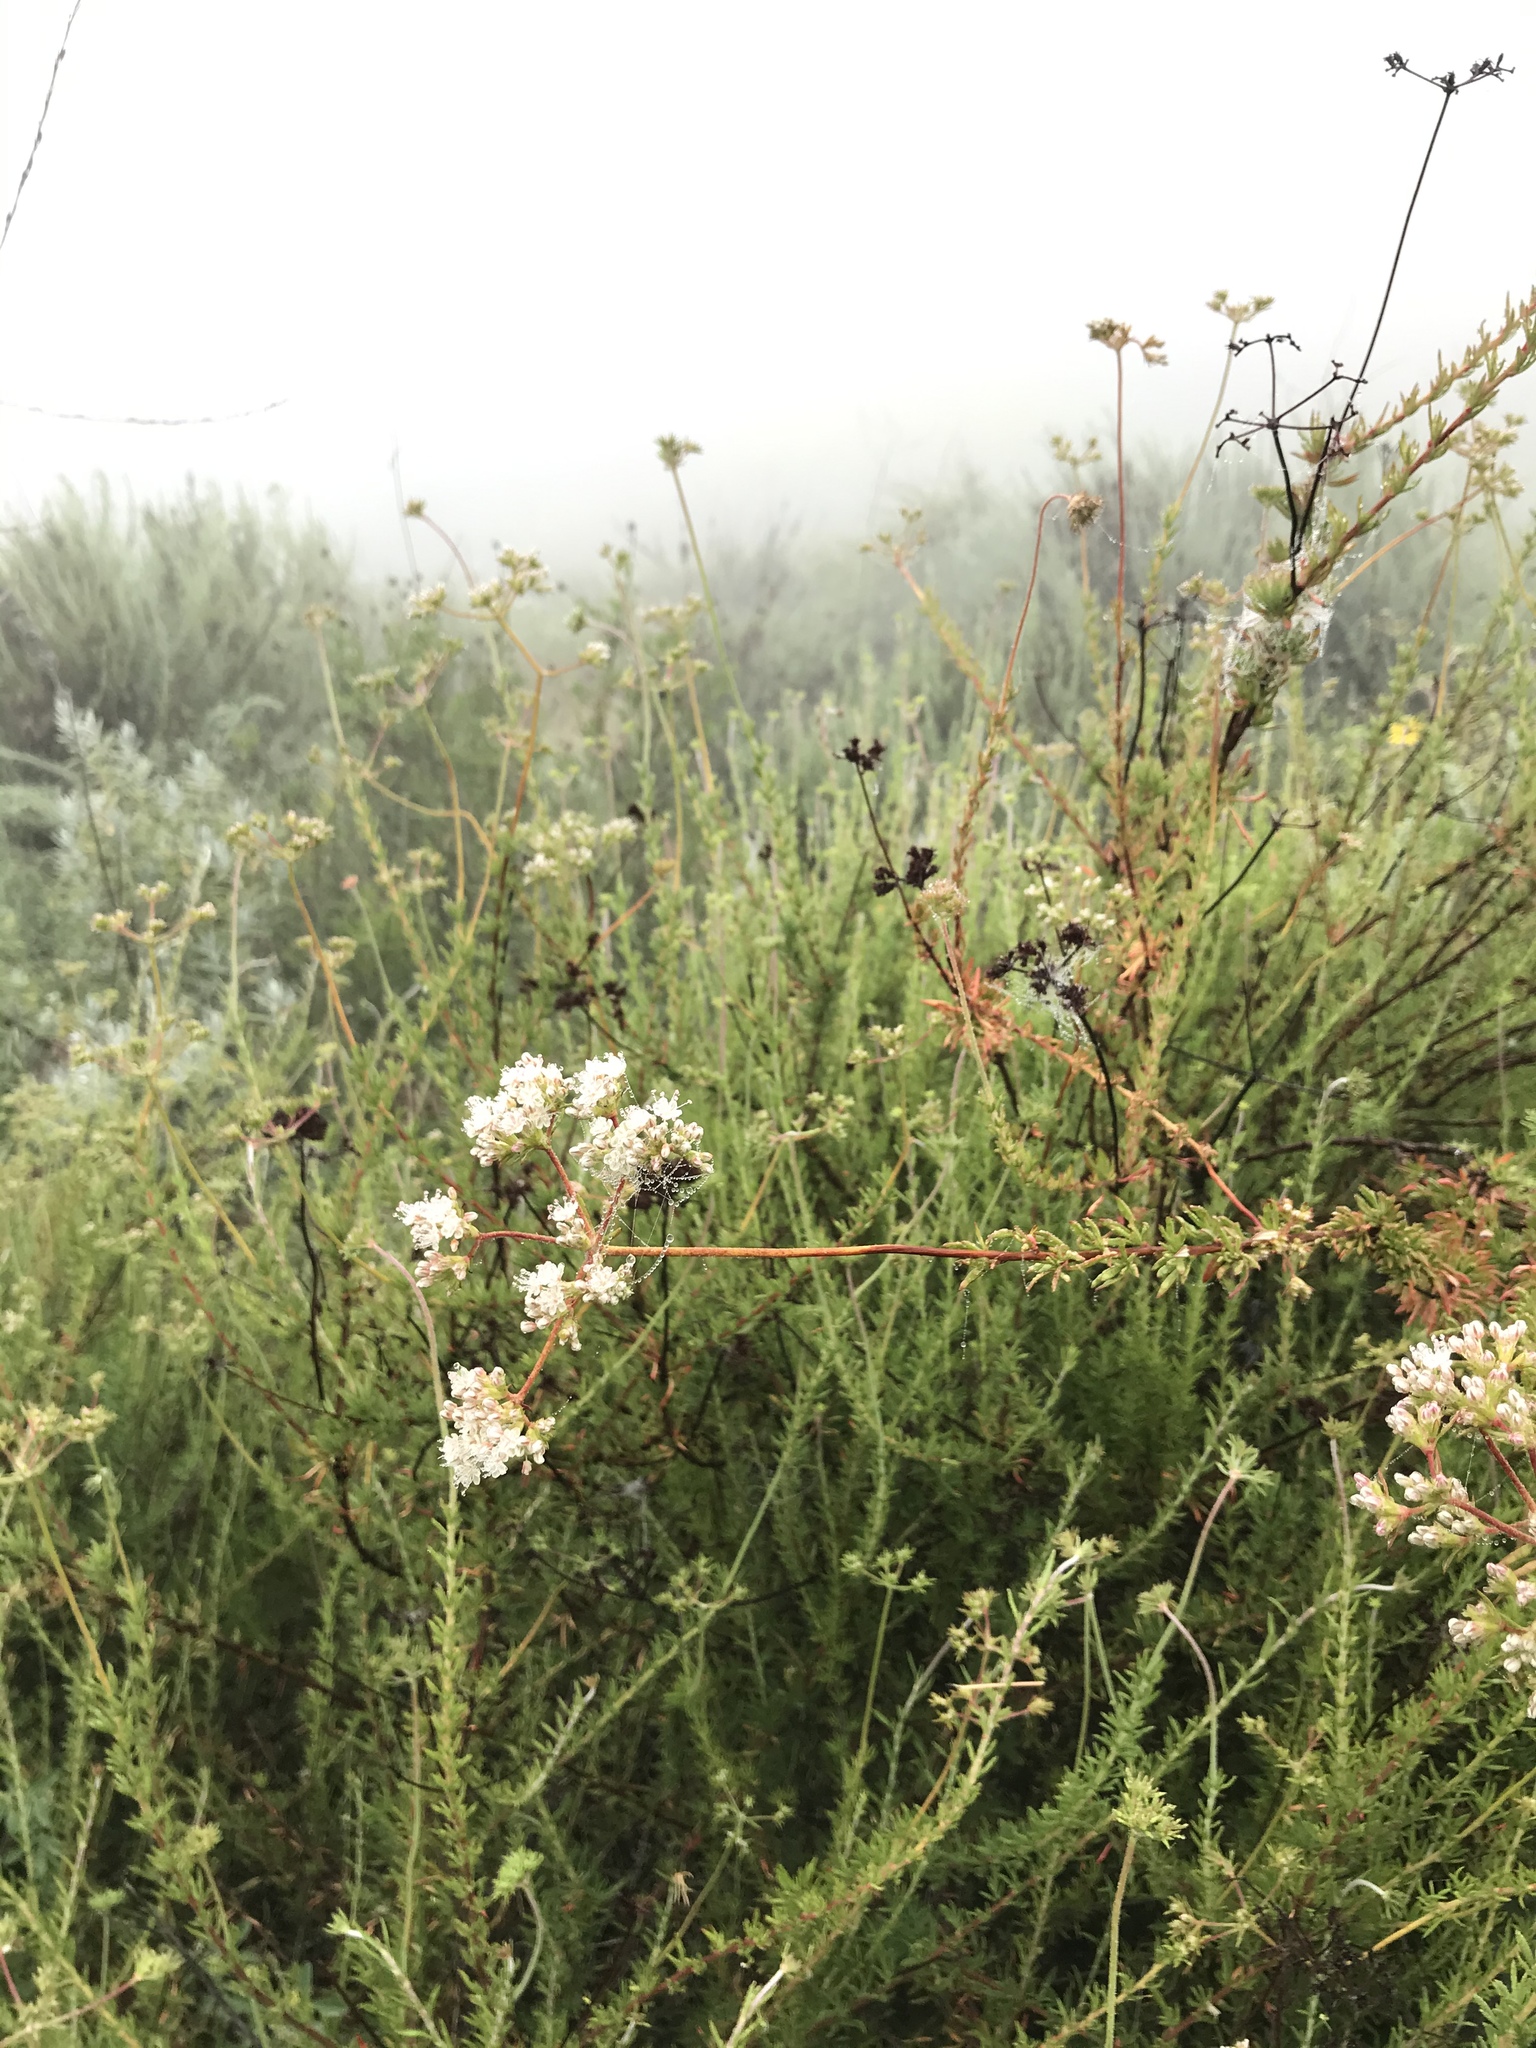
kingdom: Plantae
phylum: Tracheophyta
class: Magnoliopsida
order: Caryophyllales
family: Polygonaceae
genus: Eriogonum
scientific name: Eriogonum fasciculatum
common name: California wild buckwheat
